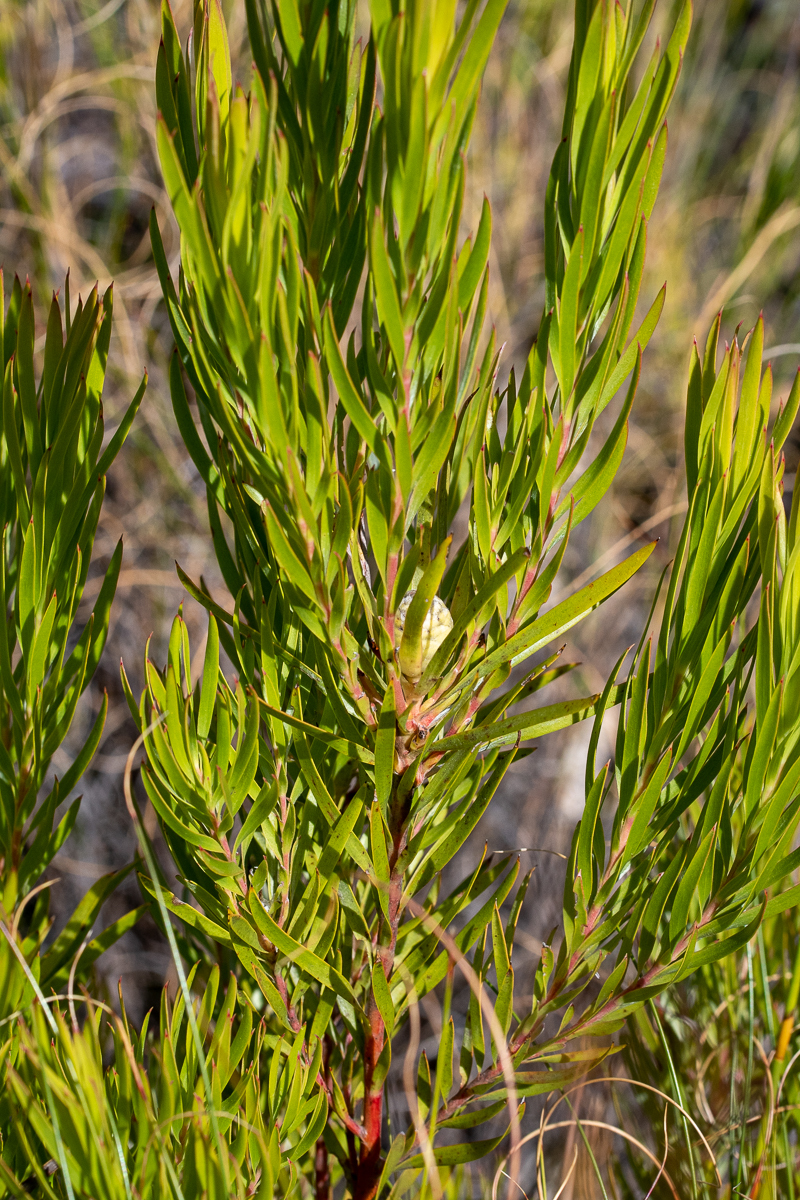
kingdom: Plantae
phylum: Tracheophyta
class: Magnoliopsida
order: Proteales
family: Proteaceae
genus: Leucadendron
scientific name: Leucadendron xanthoconus
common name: Sickle-leaf conebush
